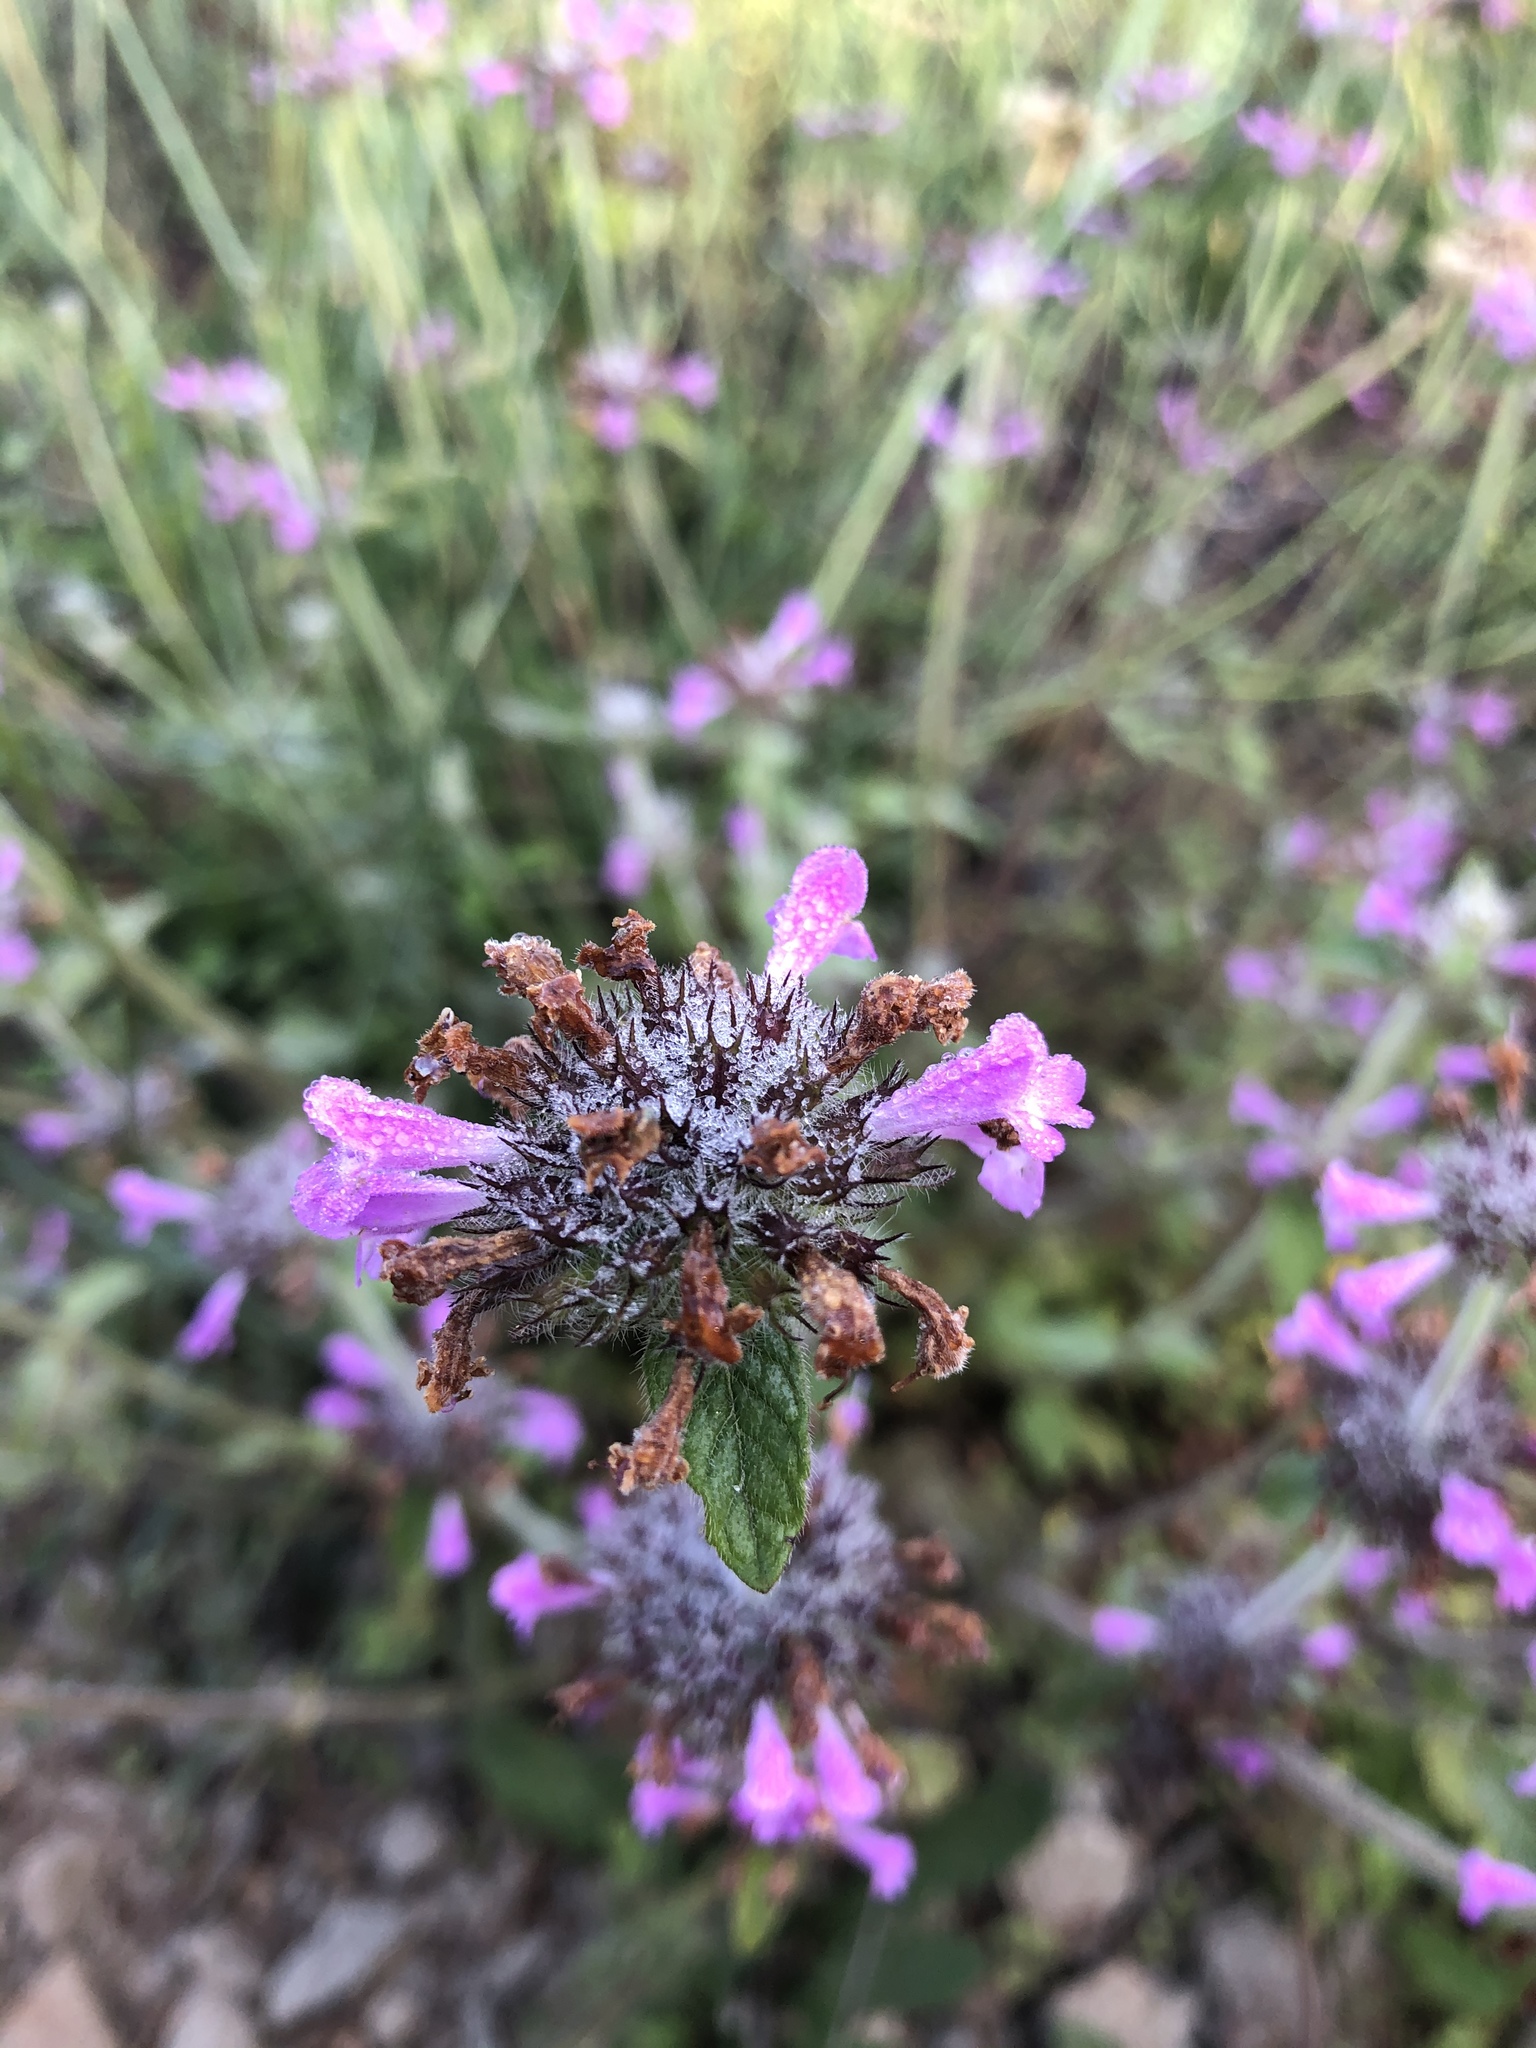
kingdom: Plantae
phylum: Tracheophyta
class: Magnoliopsida
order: Lamiales
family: Lamiaceae
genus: Clinopodium
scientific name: Clinopodium vulgare
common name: Wild basil
